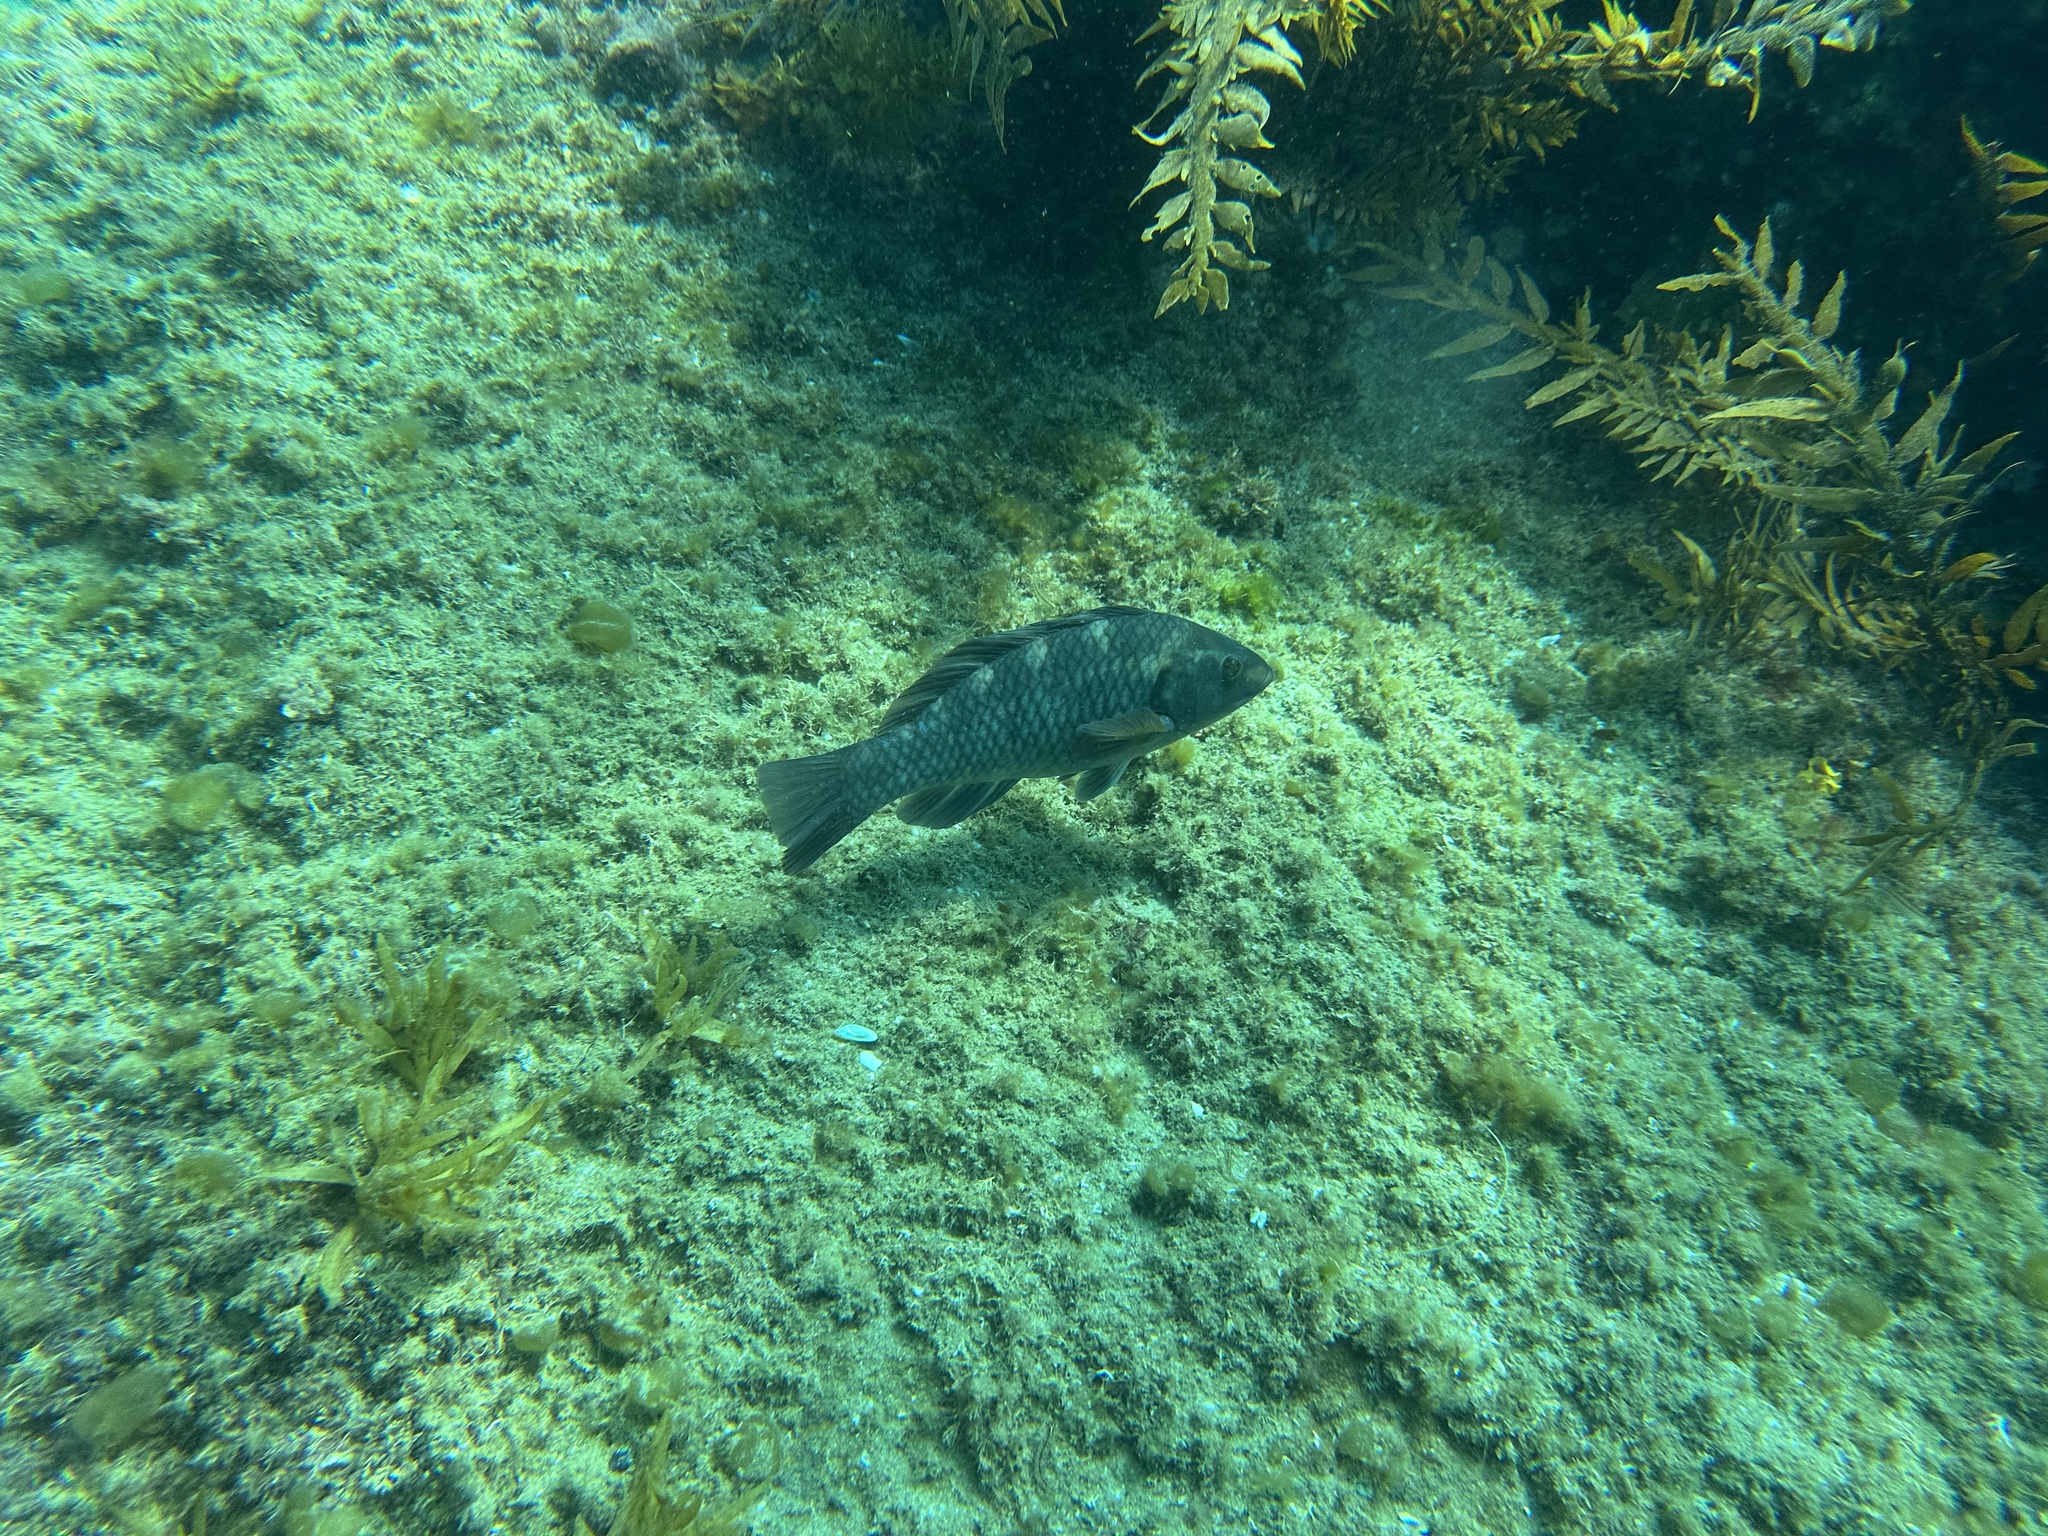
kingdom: Animalia
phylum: Chordata
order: Perciformes
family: Labridae
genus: Notolabrus
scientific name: Notolabrus fucicola
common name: Banded parrotfish
